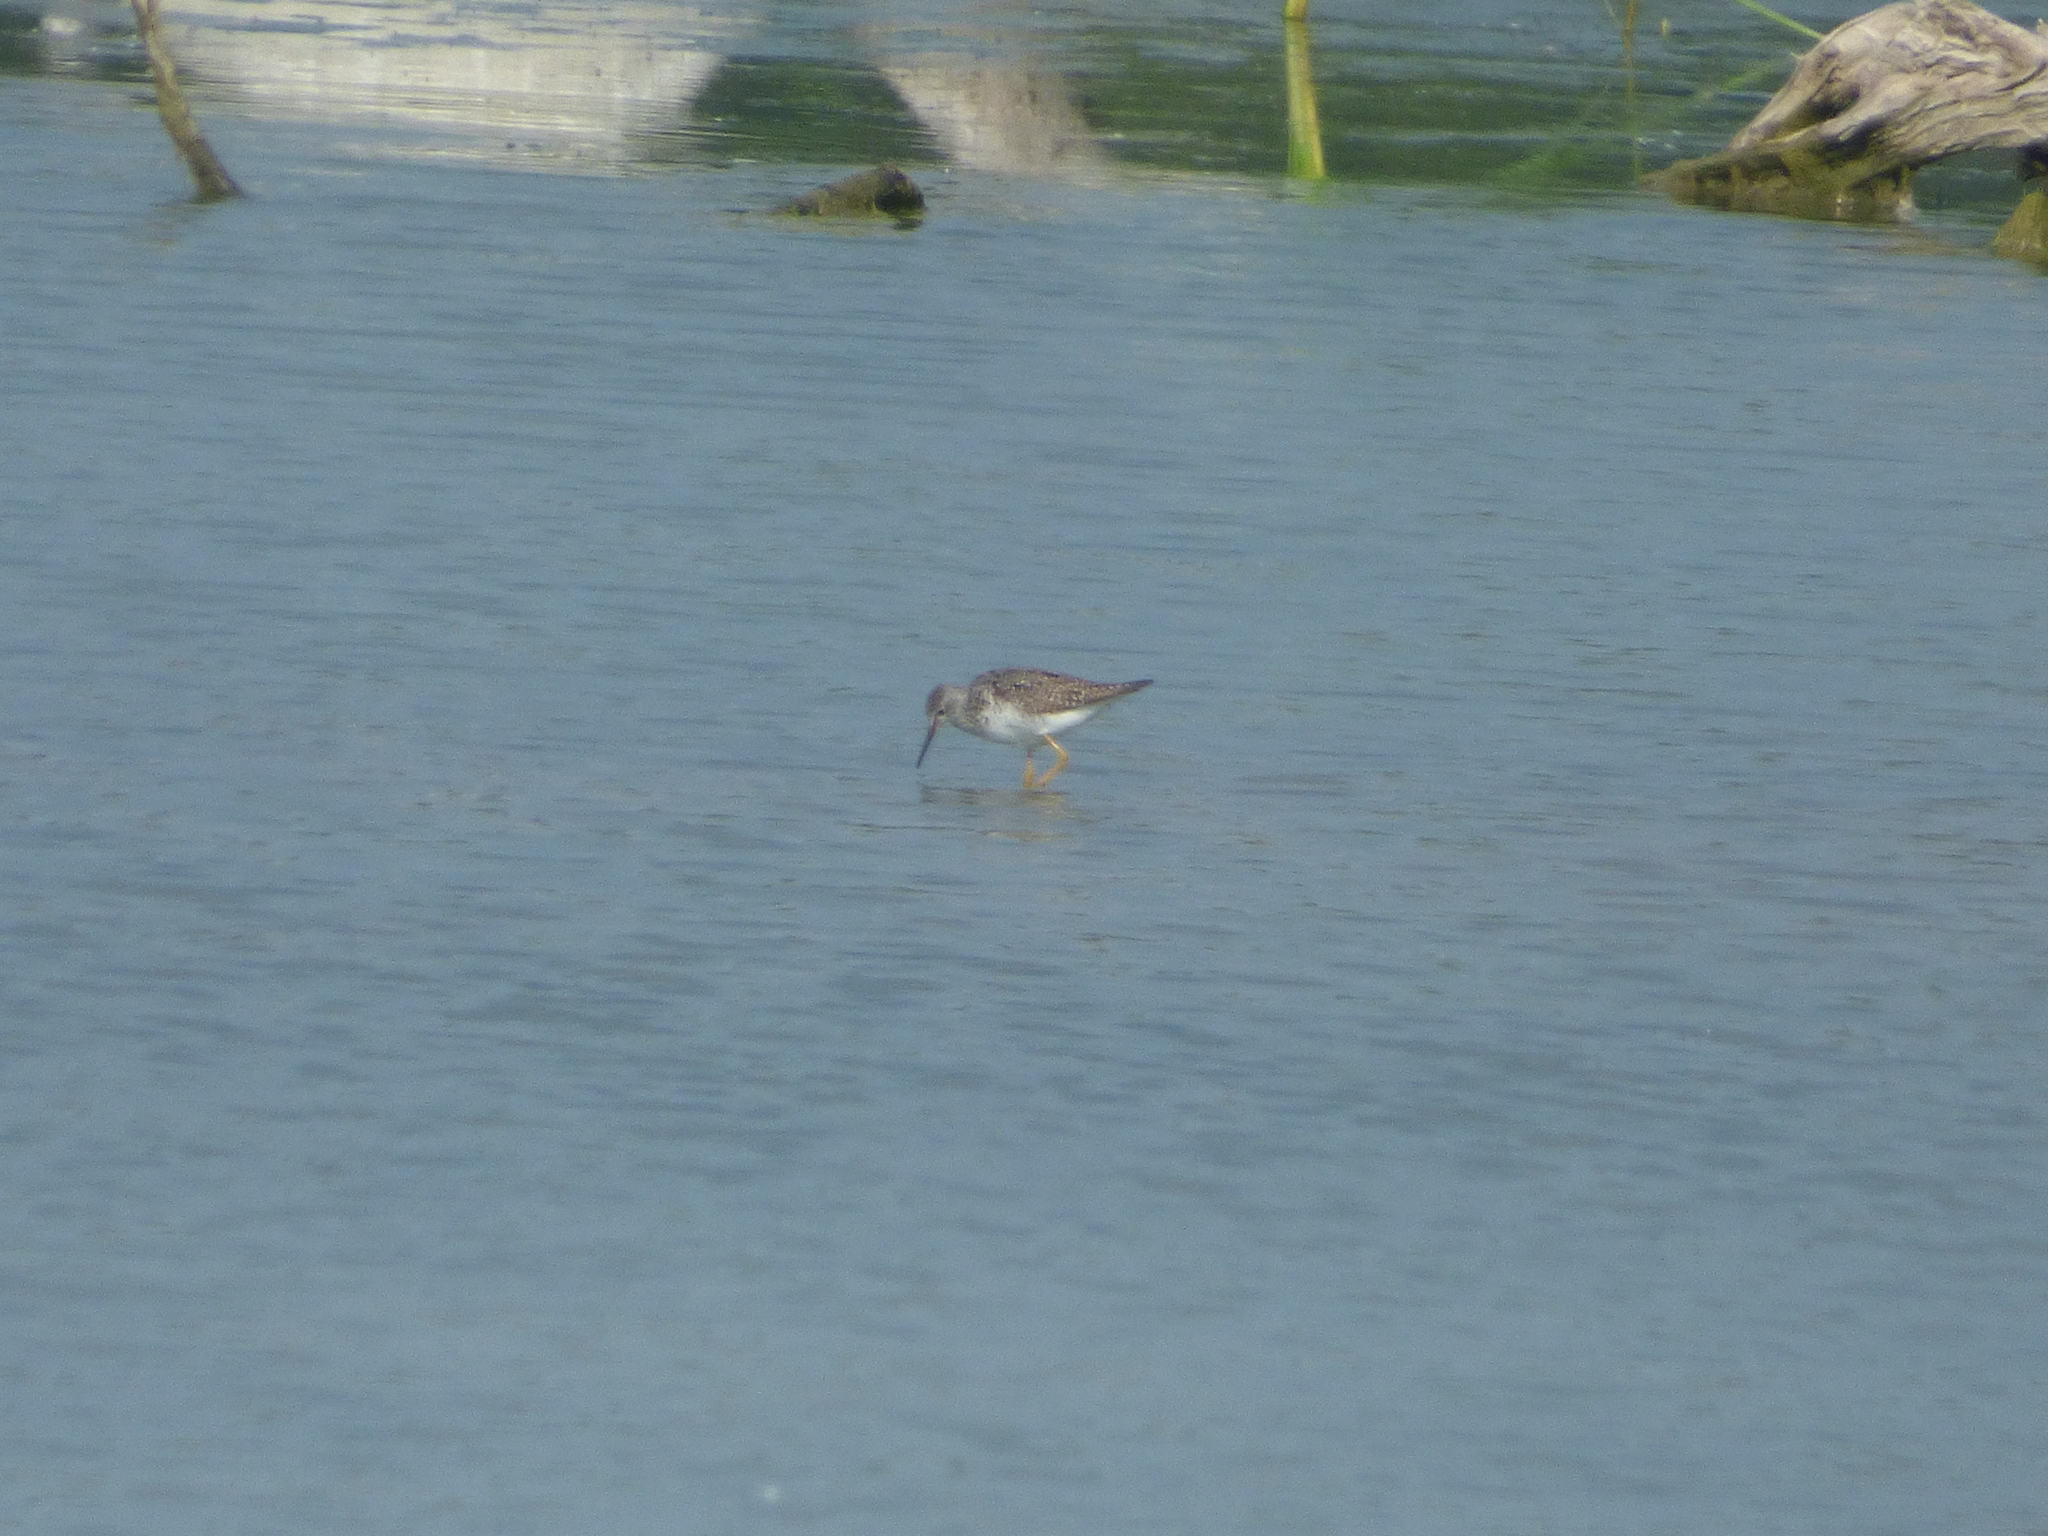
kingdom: Animalia
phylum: Chordata
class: Aves
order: Charadriiformes
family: Scolopacidae
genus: Tringa
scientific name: Tringa flavipes
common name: Lesser yellowlegs
